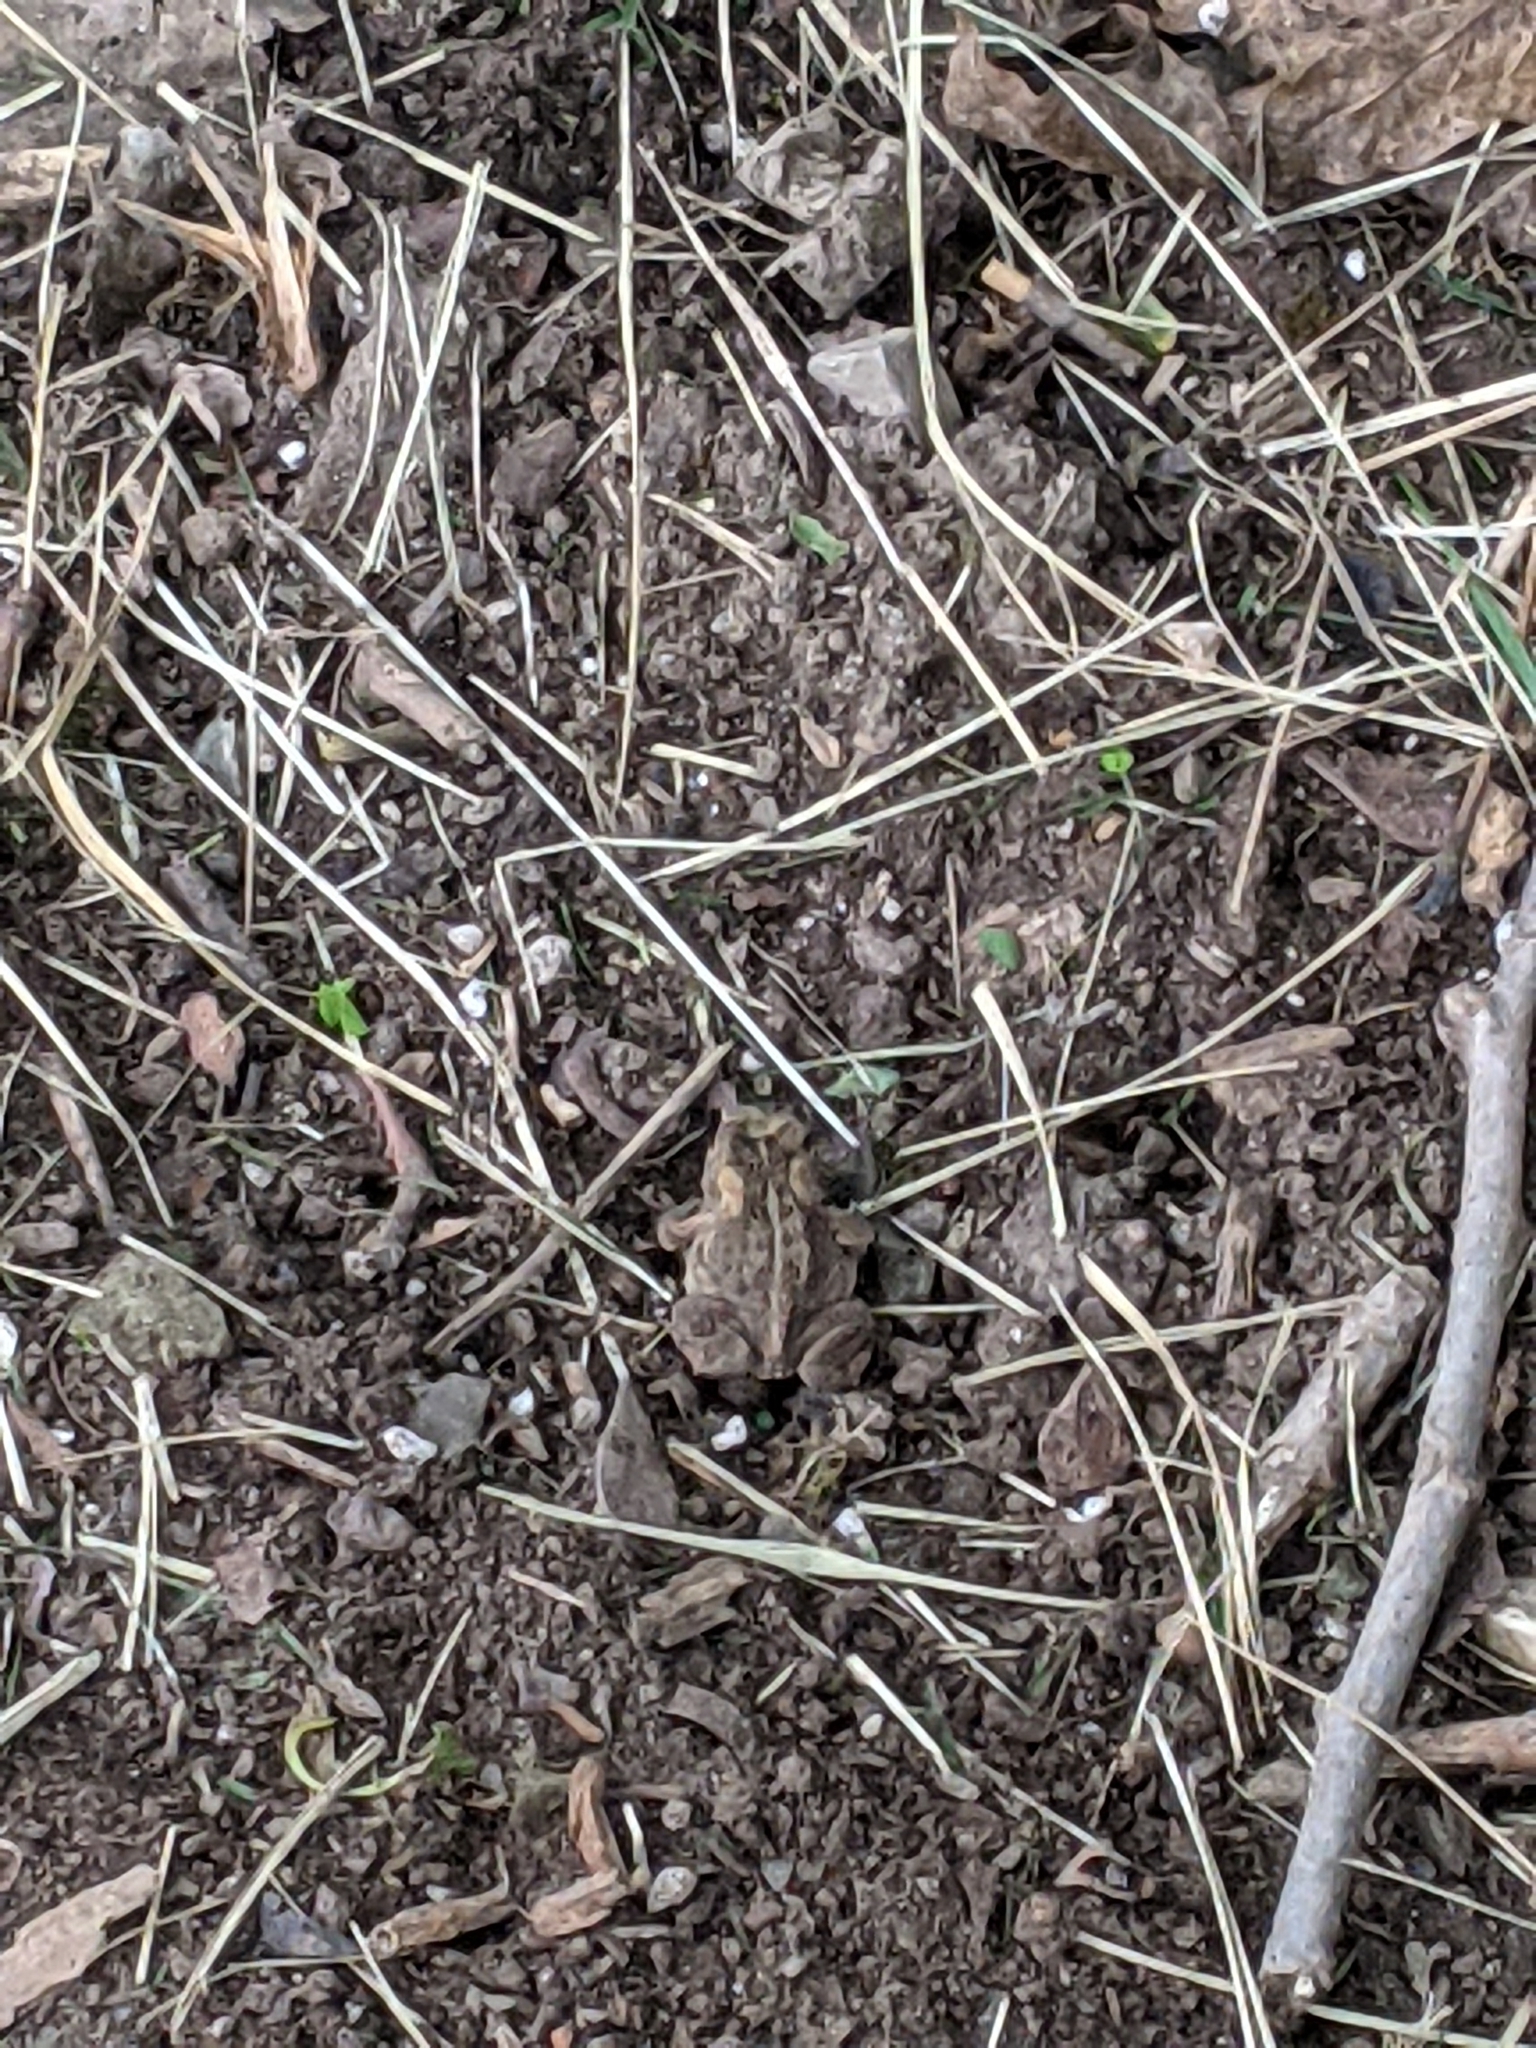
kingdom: Animalia
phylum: Chordata
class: Amphibia
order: Anura
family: Bufonidae
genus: Anaxyrus
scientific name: Anaxyrus americanus
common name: American toad
